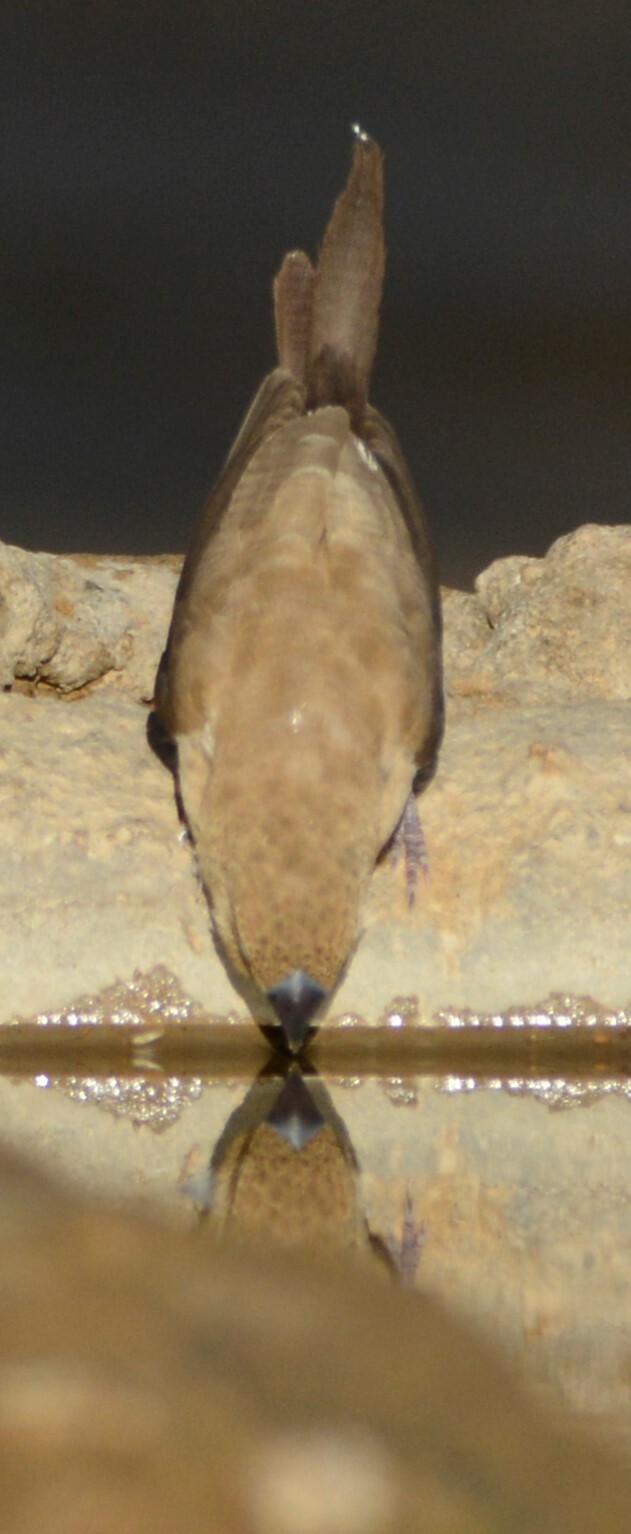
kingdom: Animalia
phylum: Chordata
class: Aves
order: Passeriformes
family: Estrildidae
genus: Euodice
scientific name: Euodice cantans
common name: African silverbill
